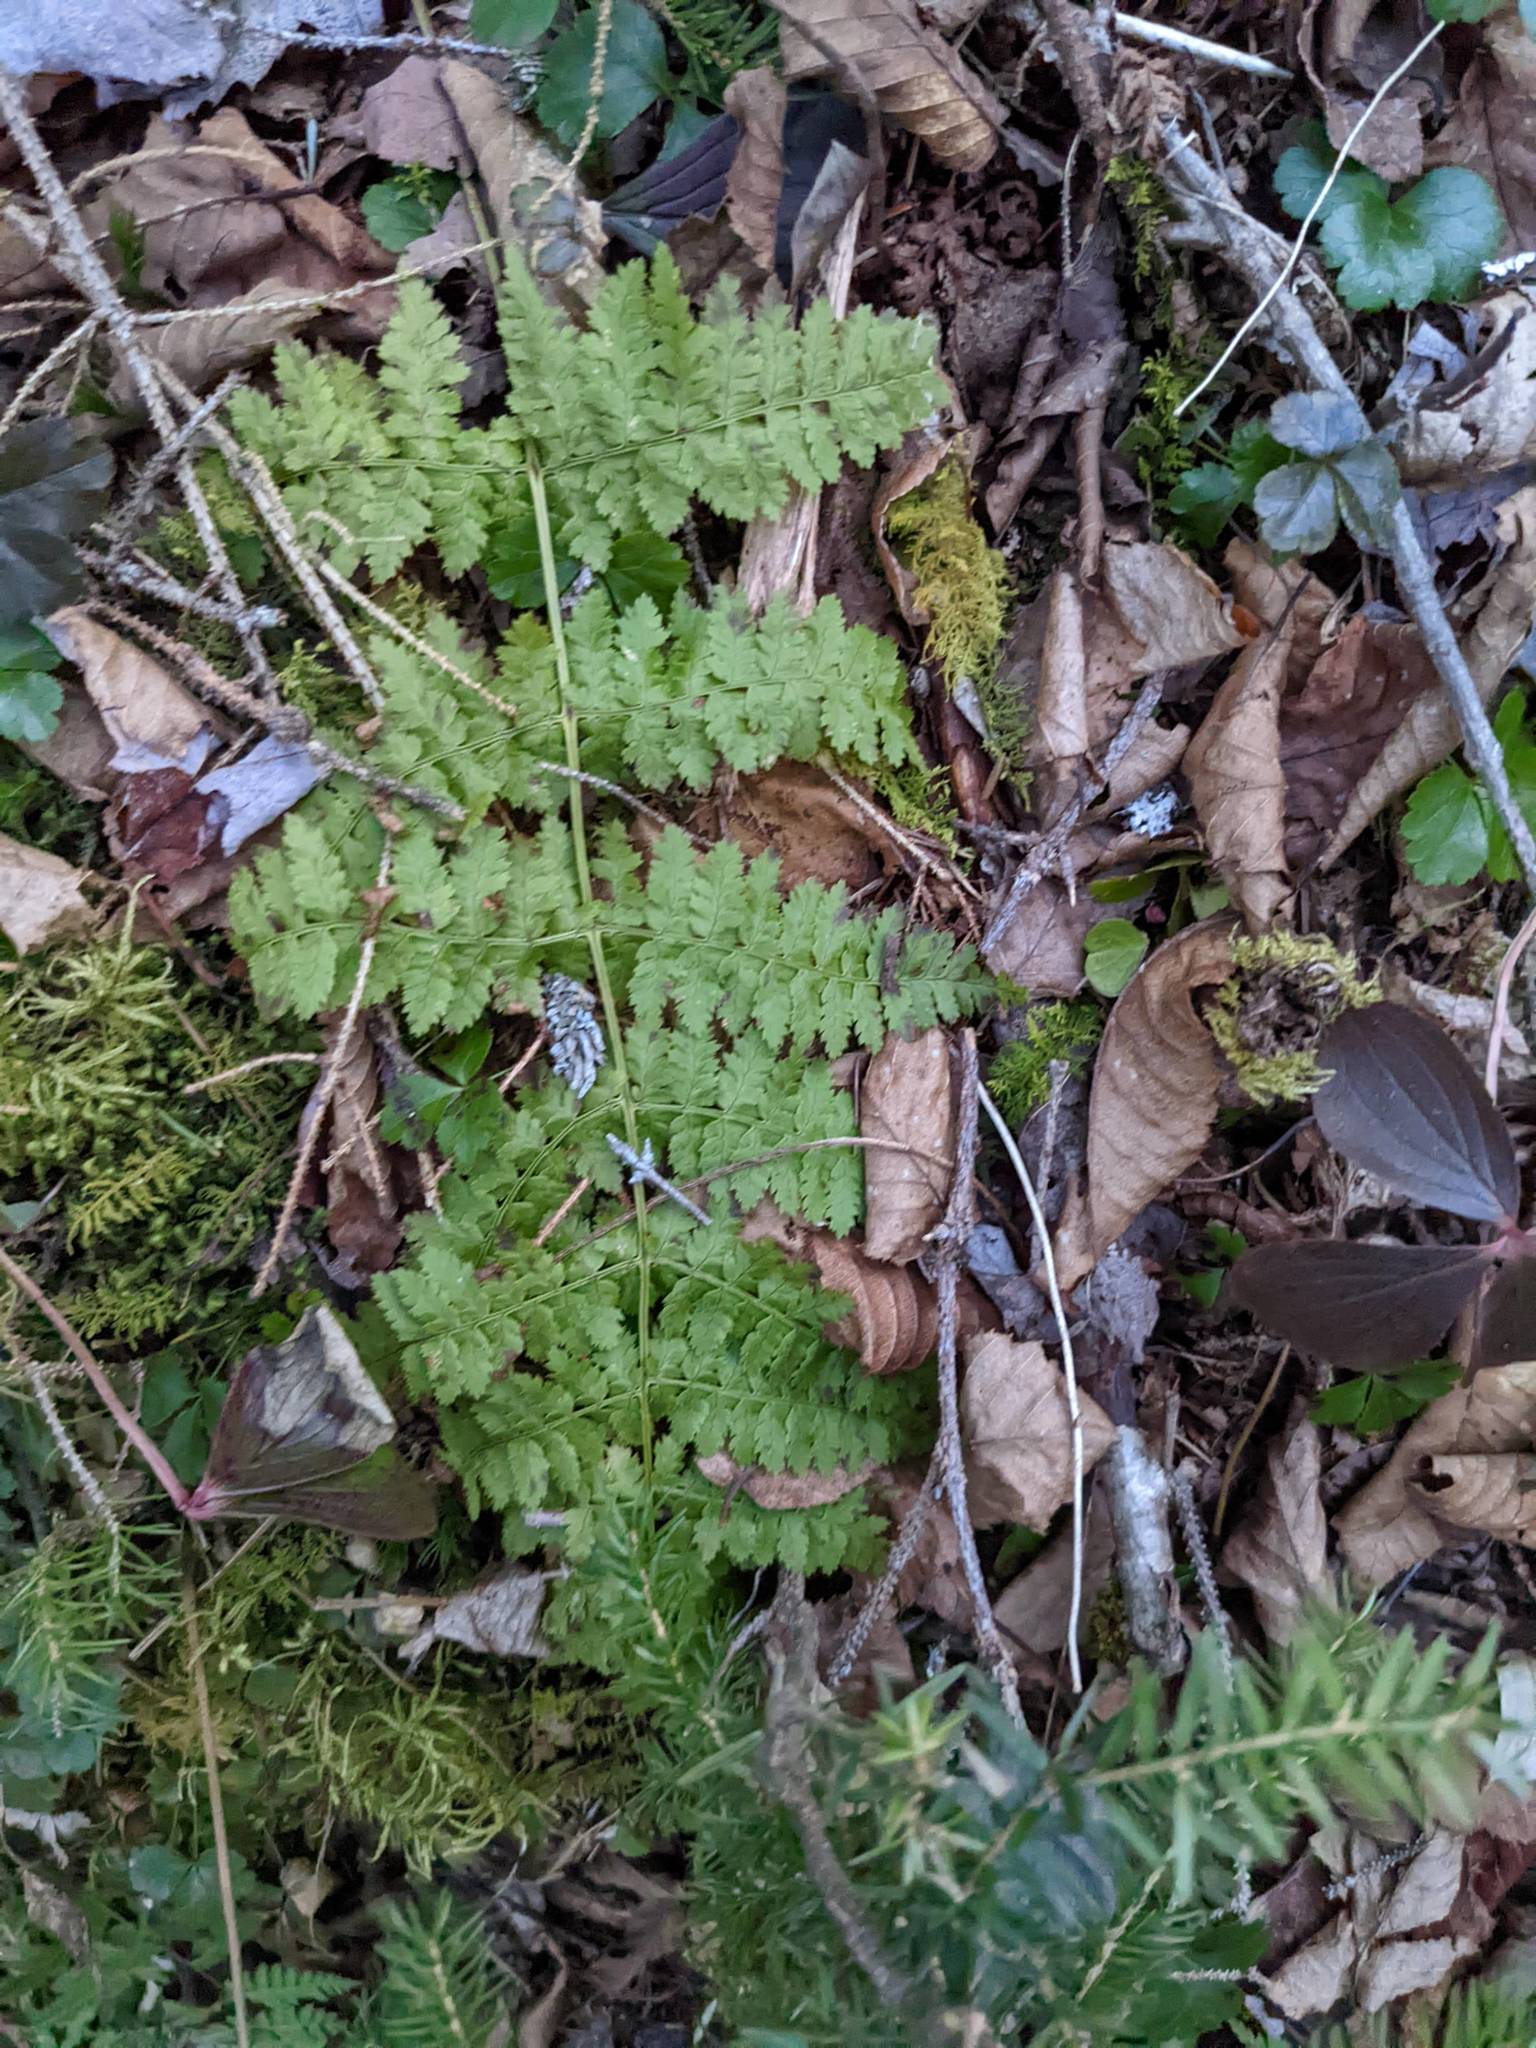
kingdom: Plantae
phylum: Tracheophyta
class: Polypodiopsida
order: Polypodiales
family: Dryopteridaceae
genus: Dryopteris
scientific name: Dryopteris intermedia
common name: Evergreen wood fern
